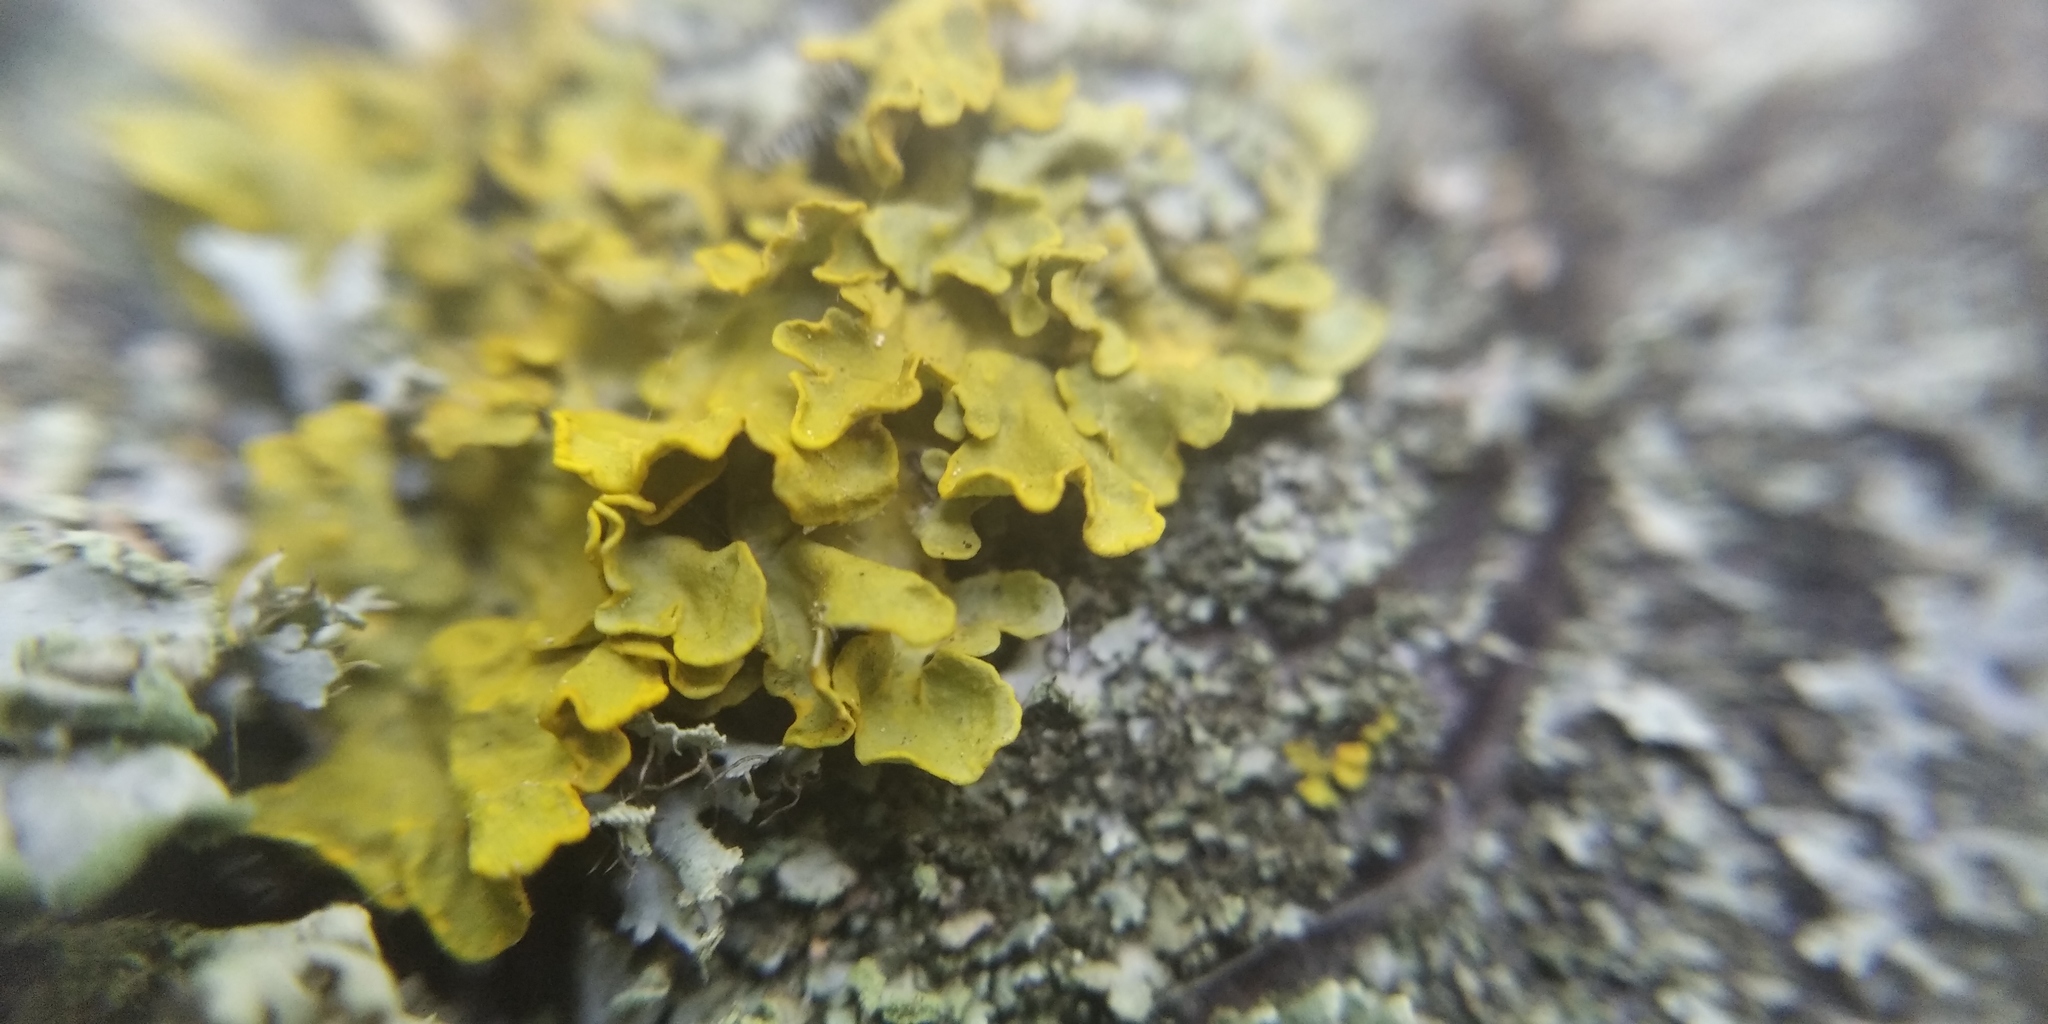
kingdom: Fungi
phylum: Ascomycota
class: Lecanoromycetes
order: Teloschistales
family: Teloschistaceae
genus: Xanthoria
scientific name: Xanthoria parietina
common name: Common orange lichen
